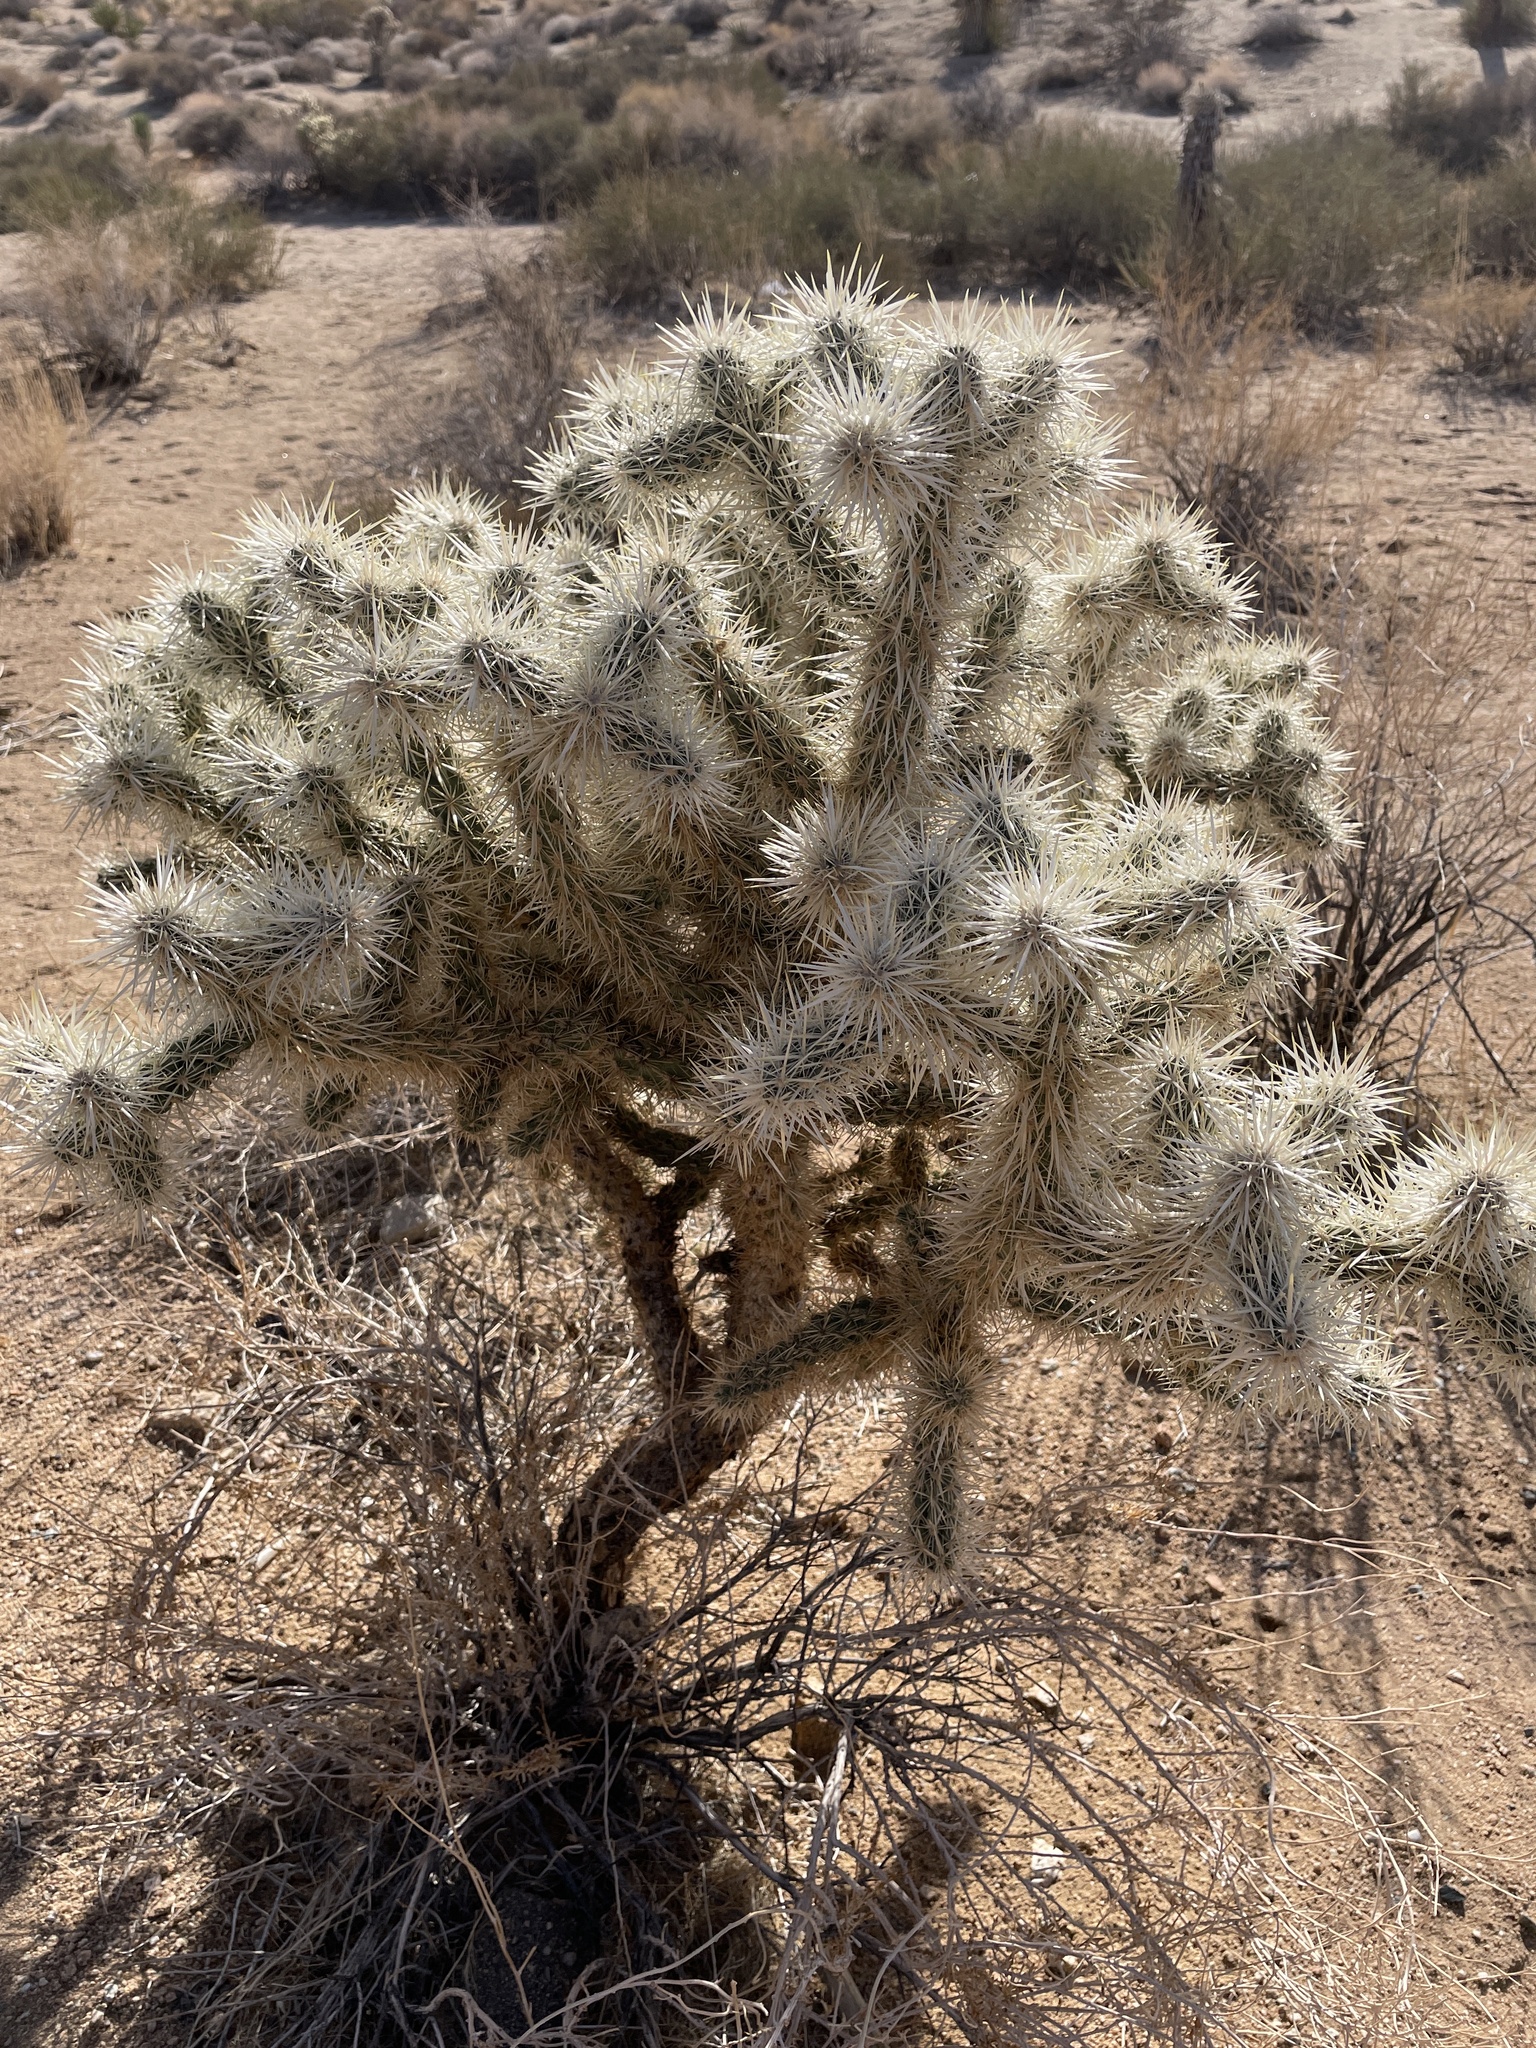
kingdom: Plantae
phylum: Tracheophyta
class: Magnoliopsida
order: Caryophyllales
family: Cactaceae
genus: Cylindropuntia
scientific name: Cylindropuntia echinocarpa
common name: Ground cholla
